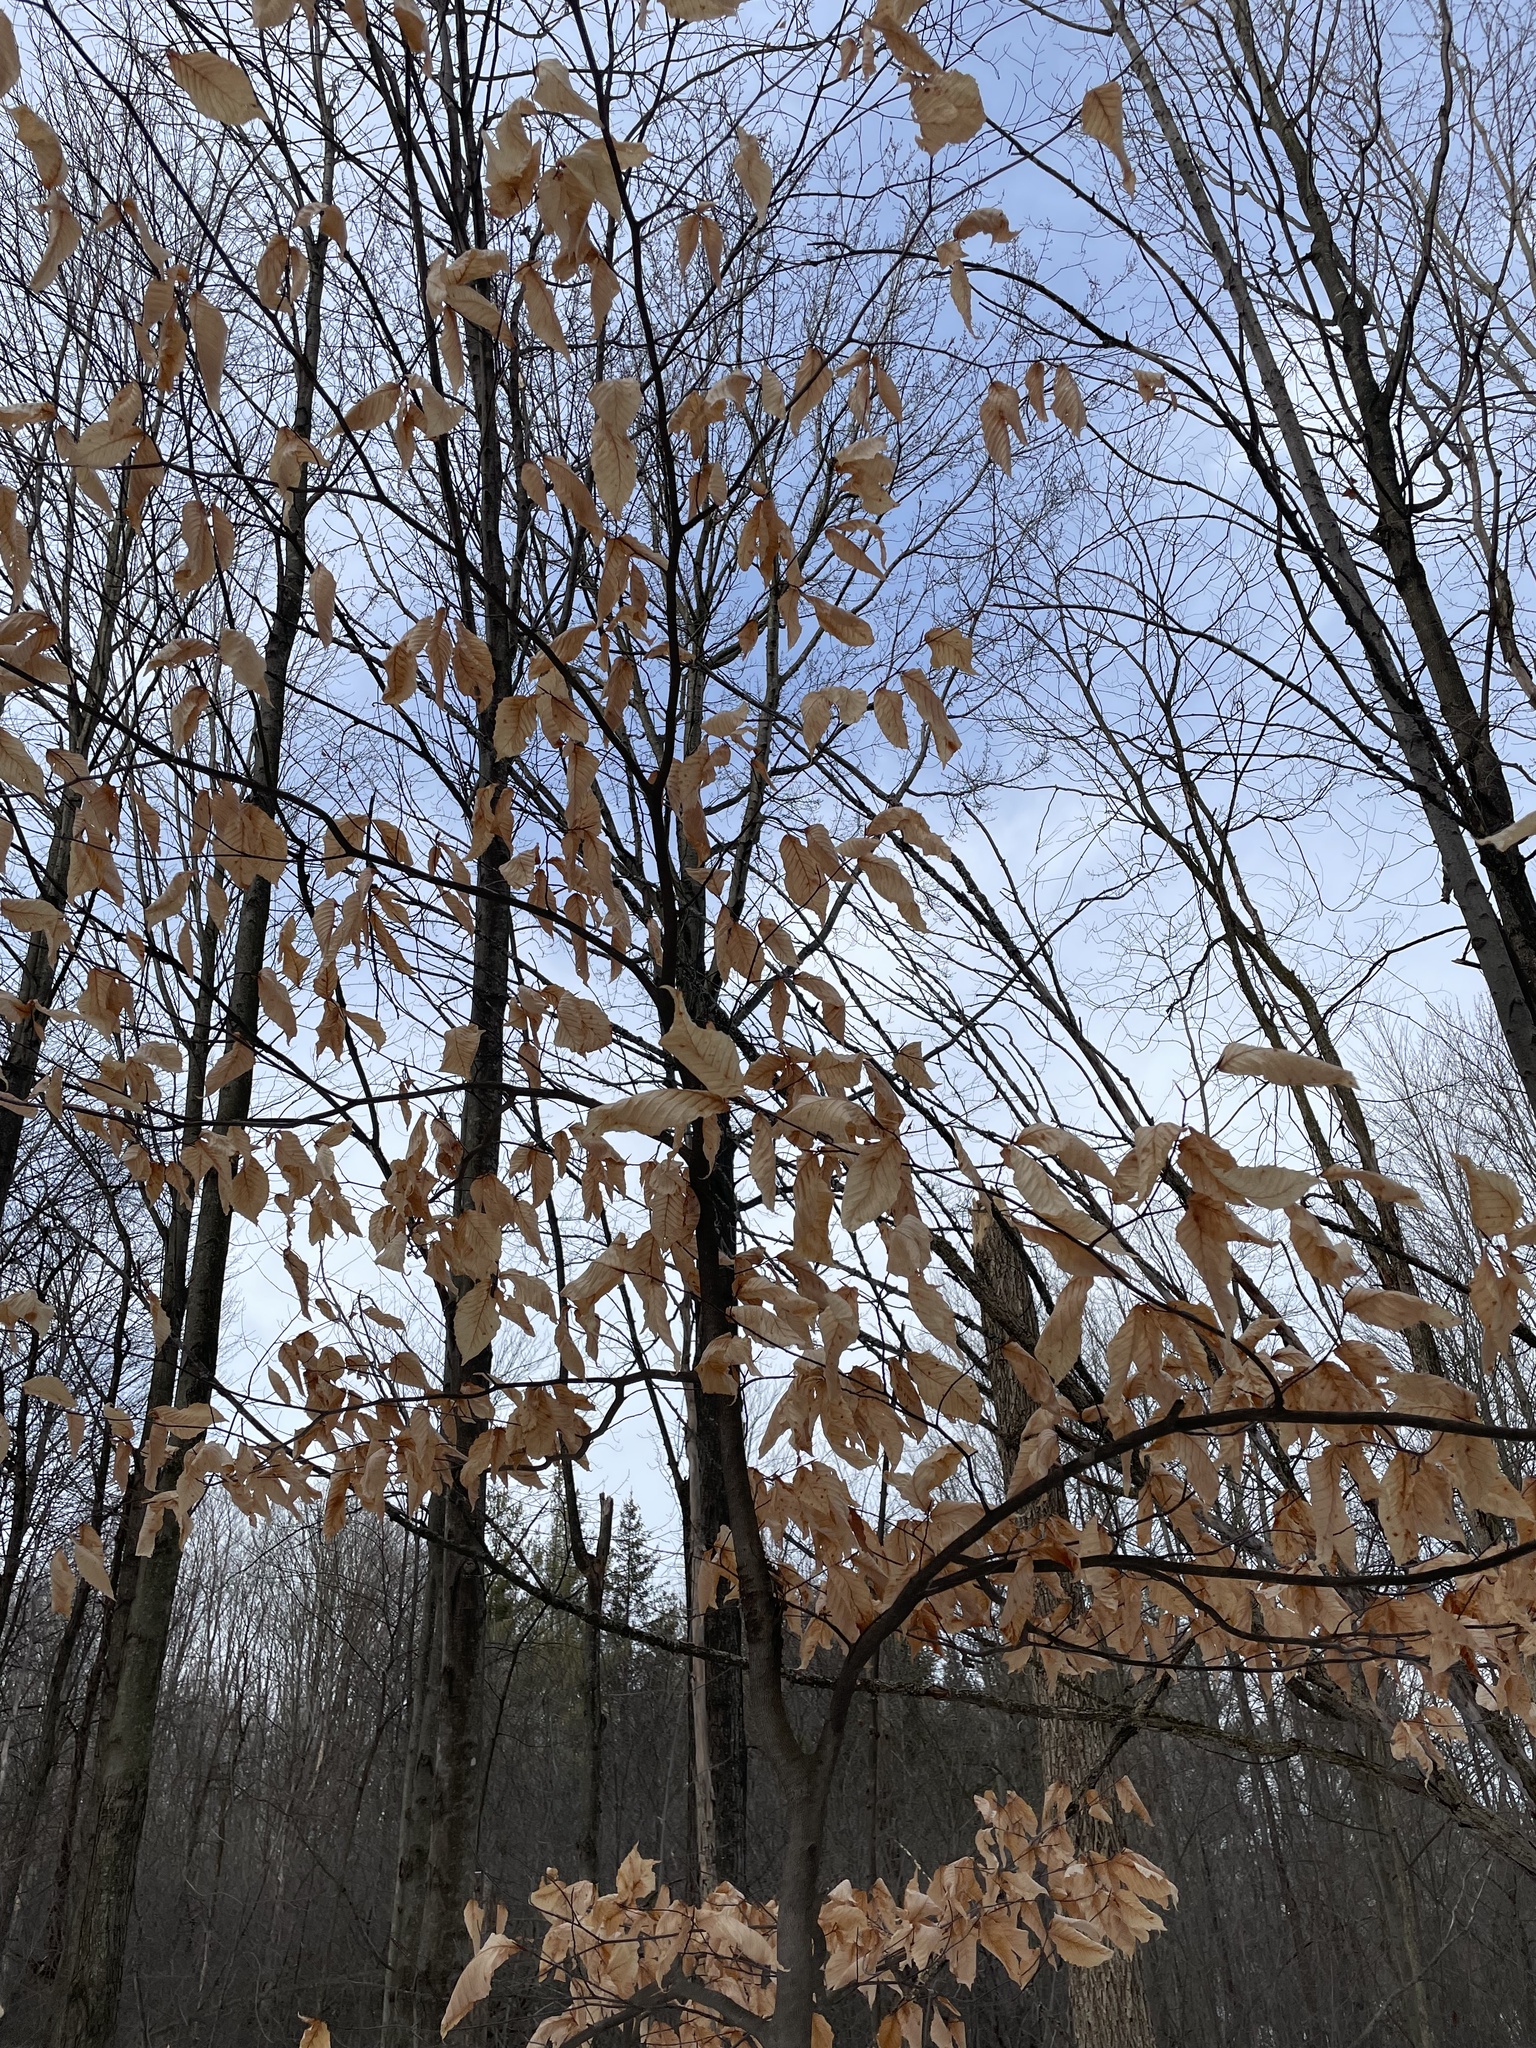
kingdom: Plantae
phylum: Tracheophyta
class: Magnoliopsida
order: Fagales
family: Fagaceae
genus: Fagus
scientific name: Fagus grandifolia
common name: American beech
